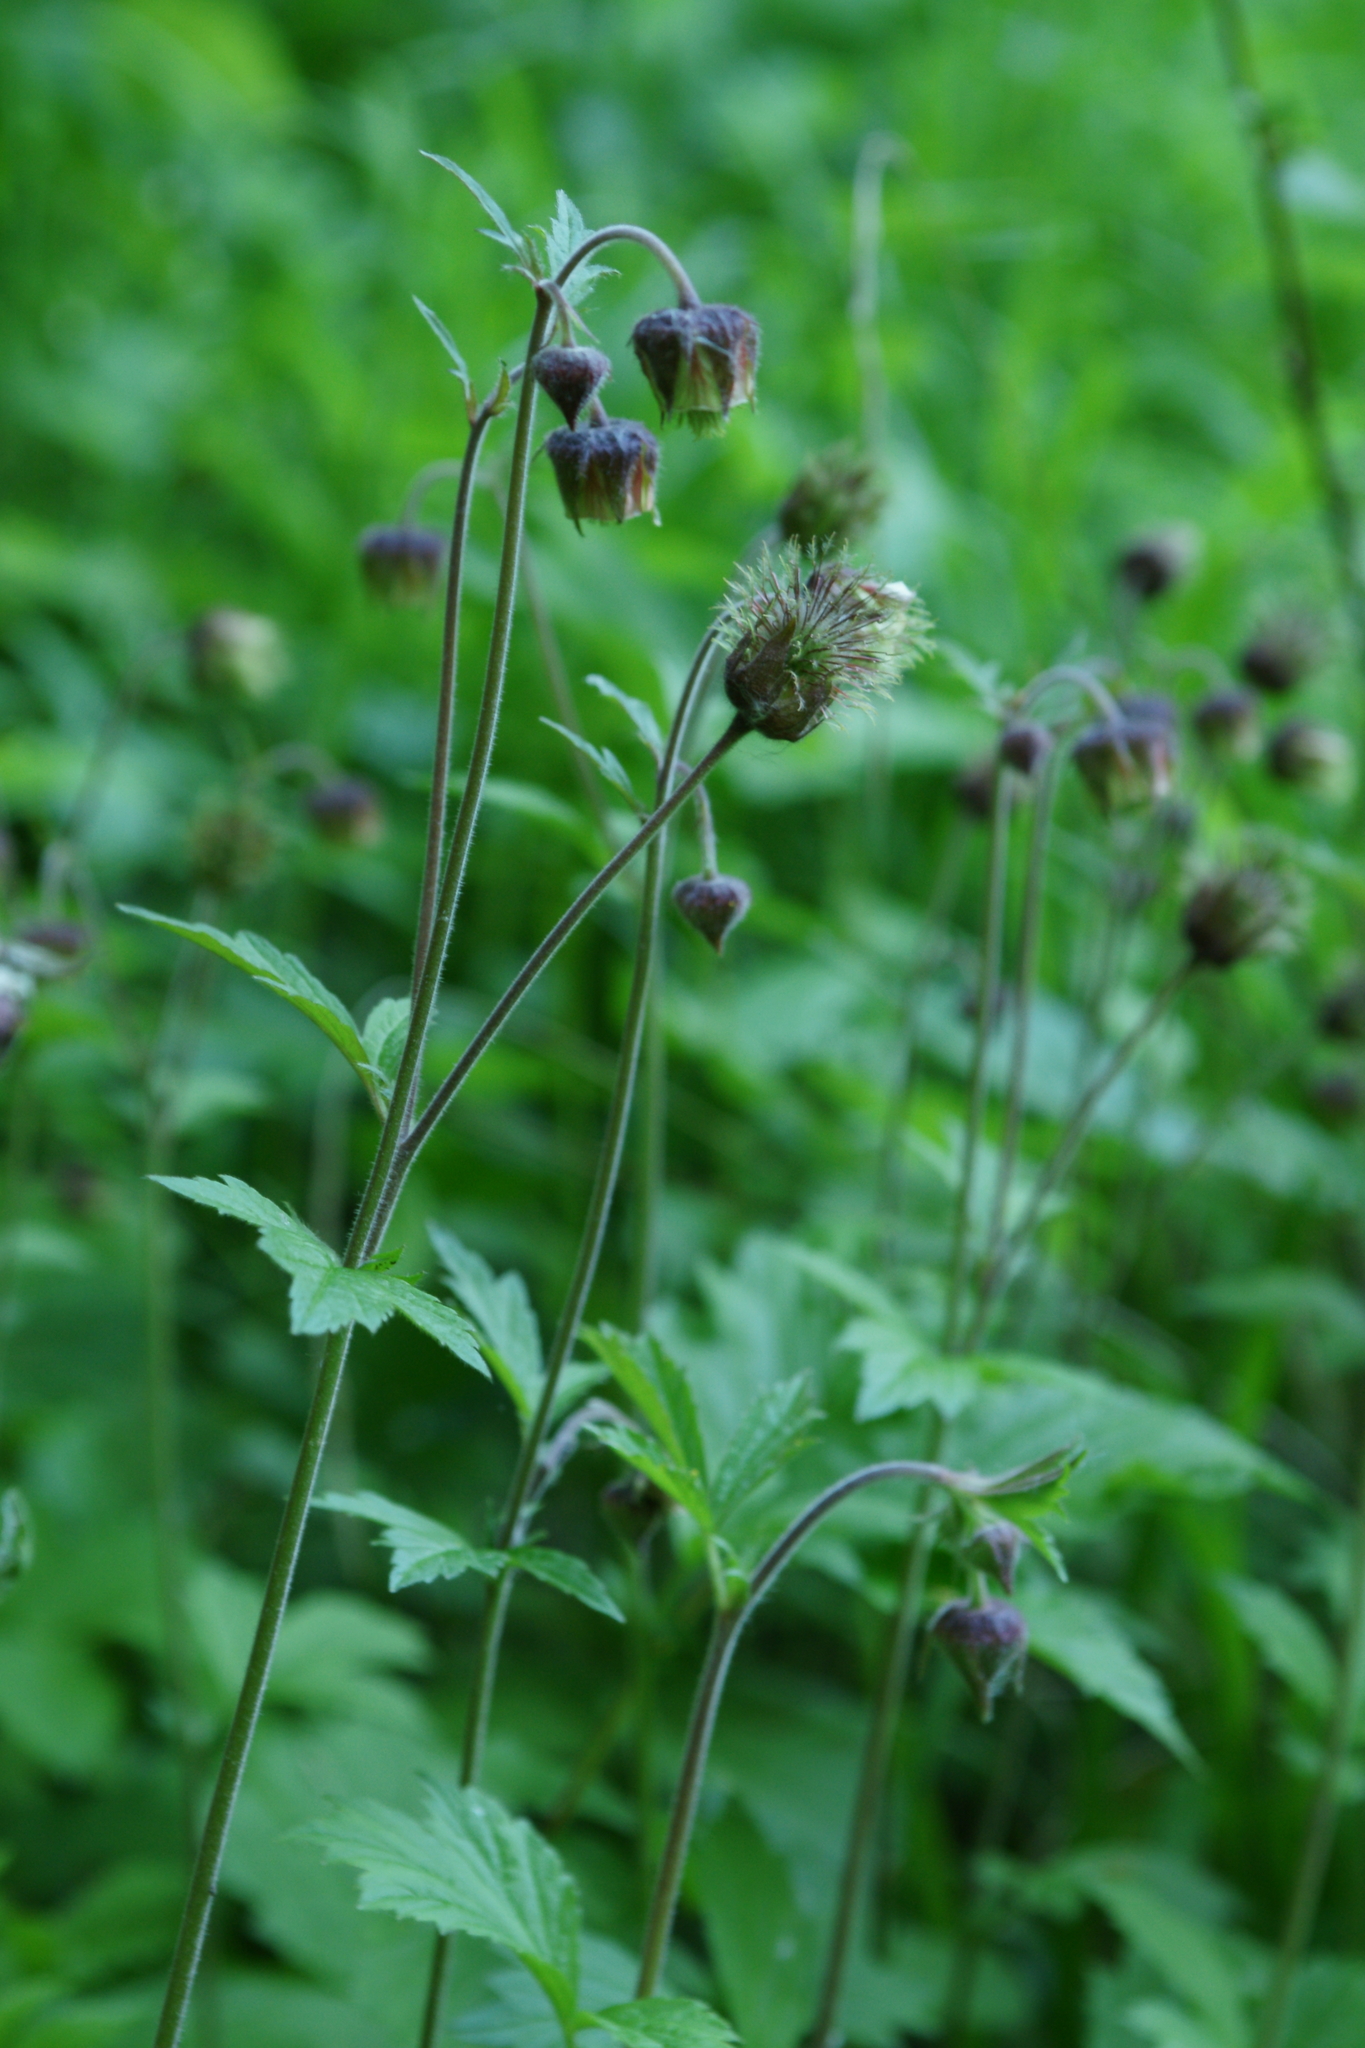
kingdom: Plantae
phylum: Tracheophyta
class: Magnoliopsida
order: Rosales
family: Rosaceae
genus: Geum
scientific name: Geum rivale
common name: Water avens
